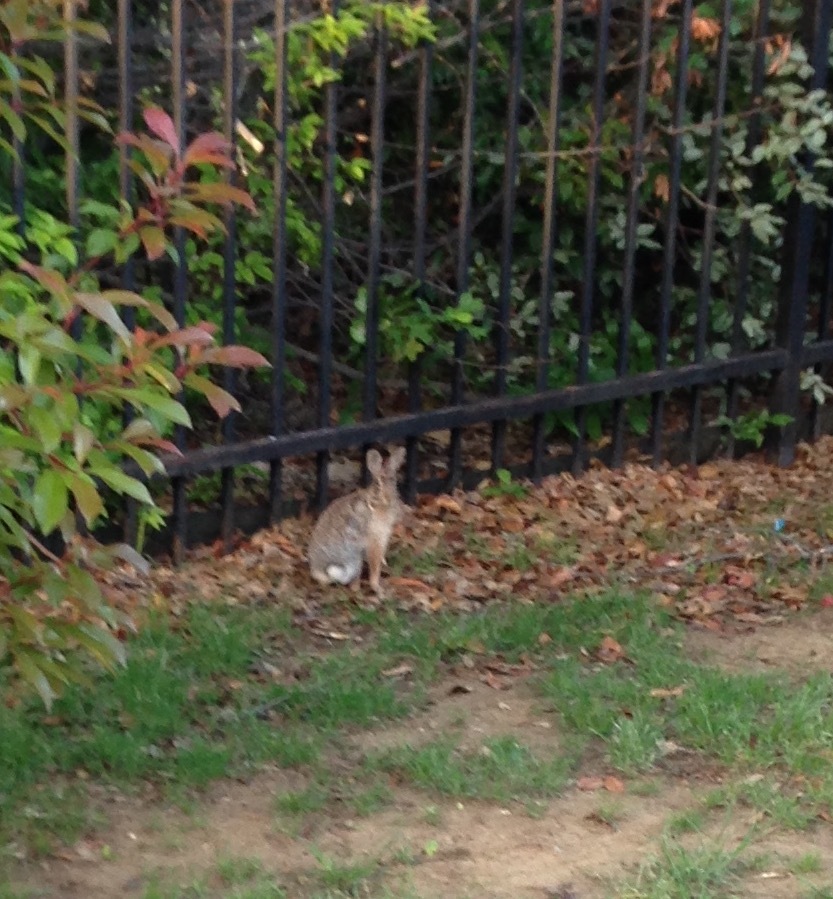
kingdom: Animalia
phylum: Chordata
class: Mammalia
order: Lagomorpha
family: Leporidae
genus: Sylvilagus
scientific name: Sylvilagus floridanus
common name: Eastern cottontail
